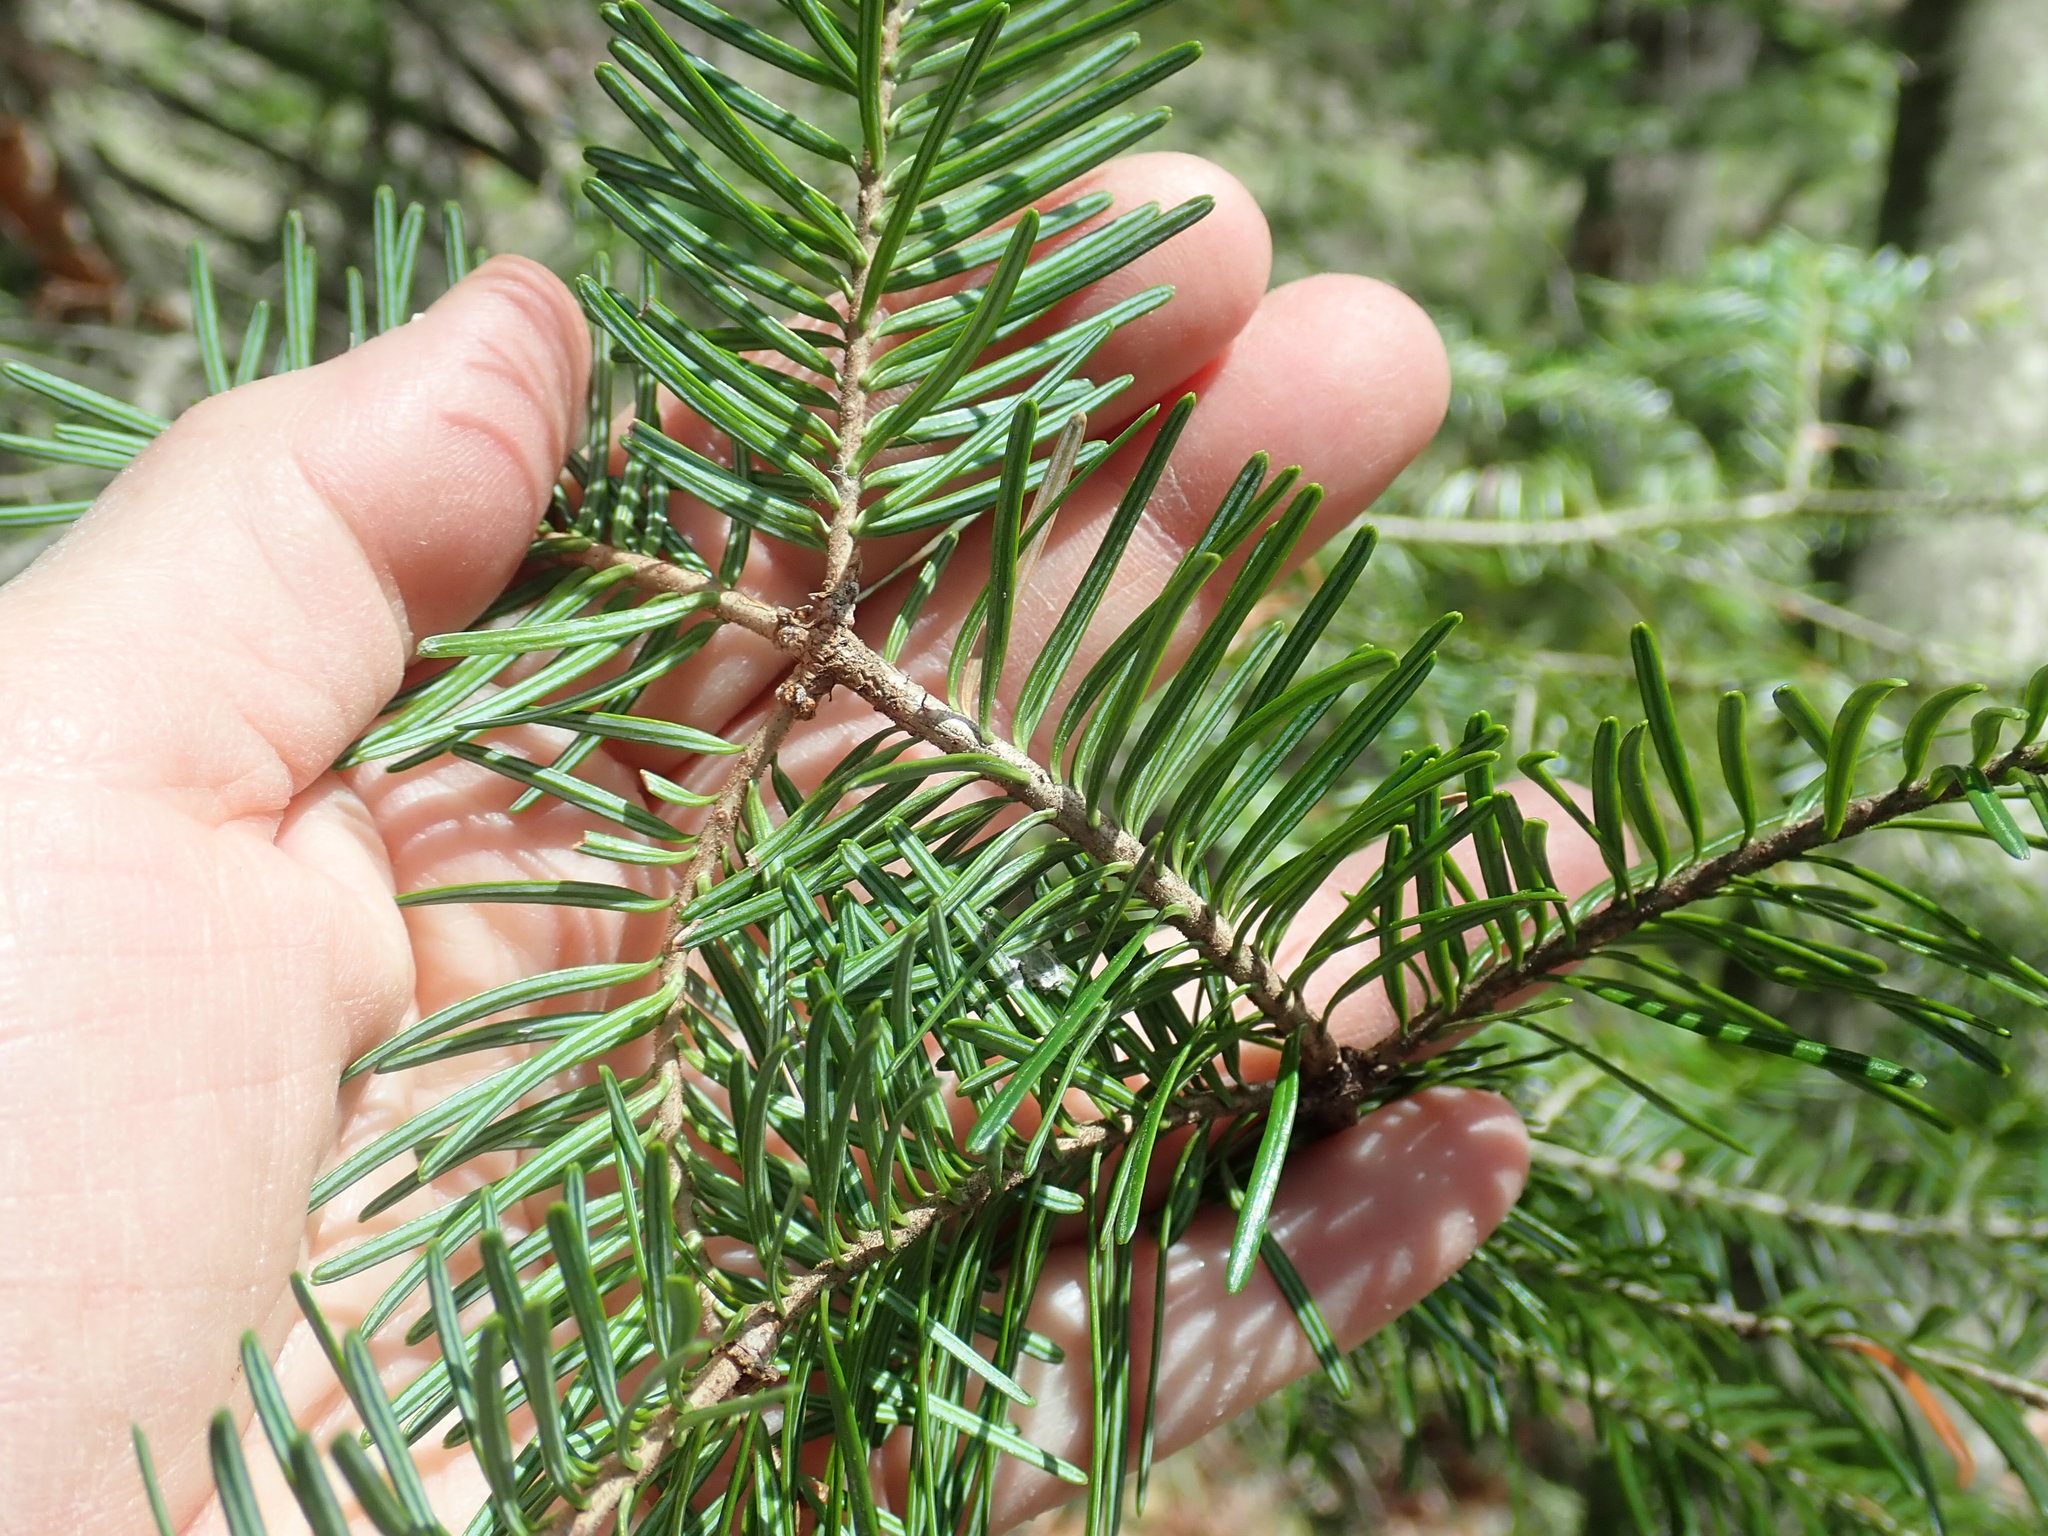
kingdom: Plantae
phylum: Tracheophyta
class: Pinopsida
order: Pinales
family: Pinaceae
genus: Abies
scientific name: Abies balsamea
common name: Balsam fir
